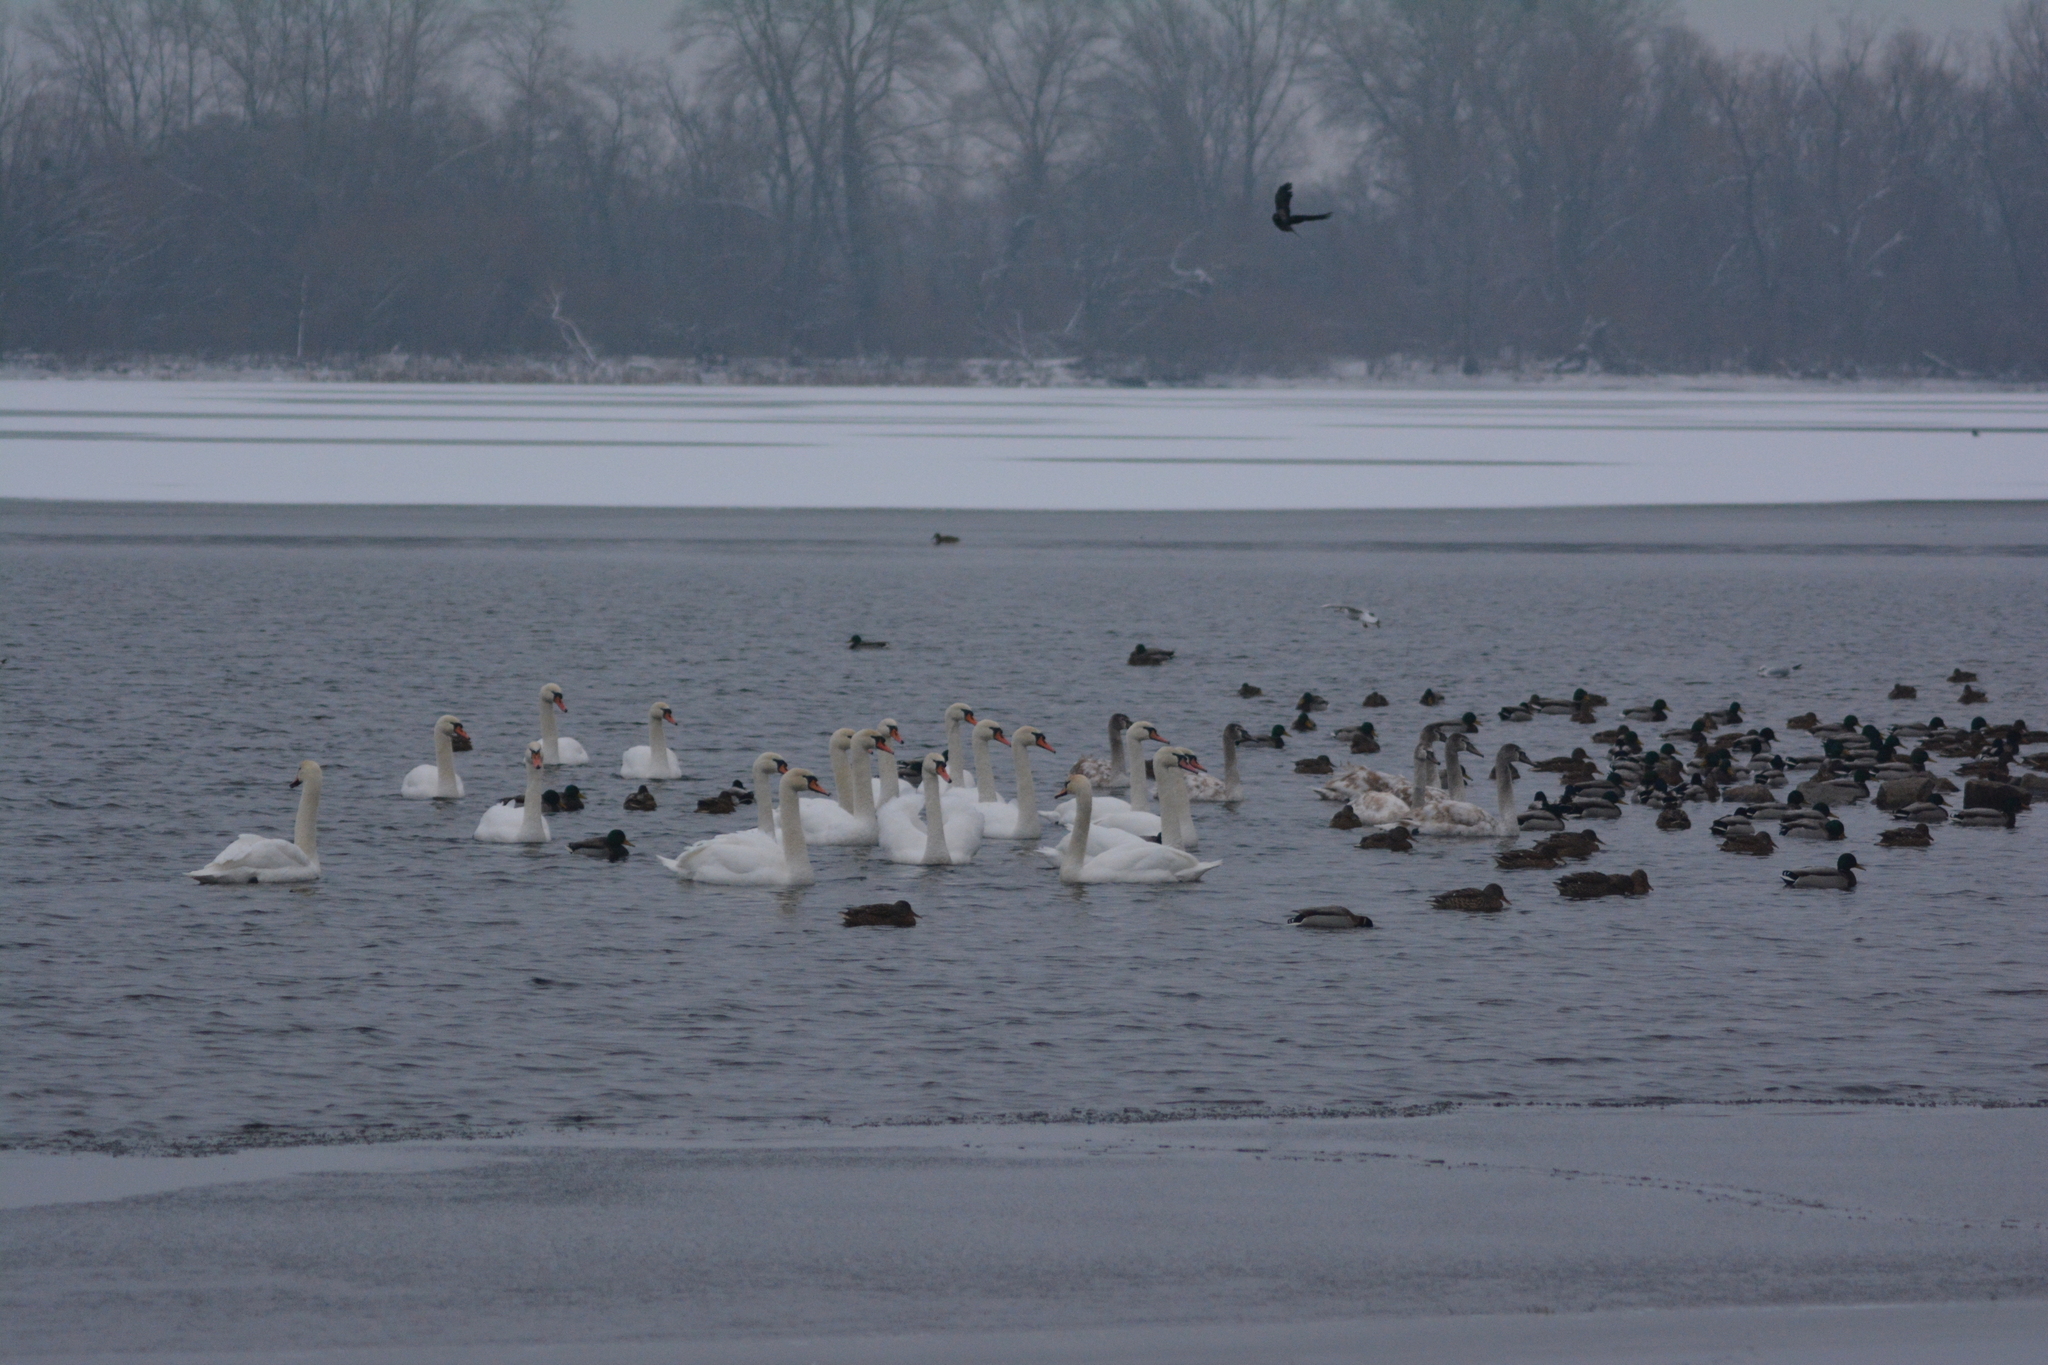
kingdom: Animalia
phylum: Chordata
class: Aves
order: Anseriformes
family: Anatidae
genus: Cygnus
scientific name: Cygnus olor
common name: Mute swan
